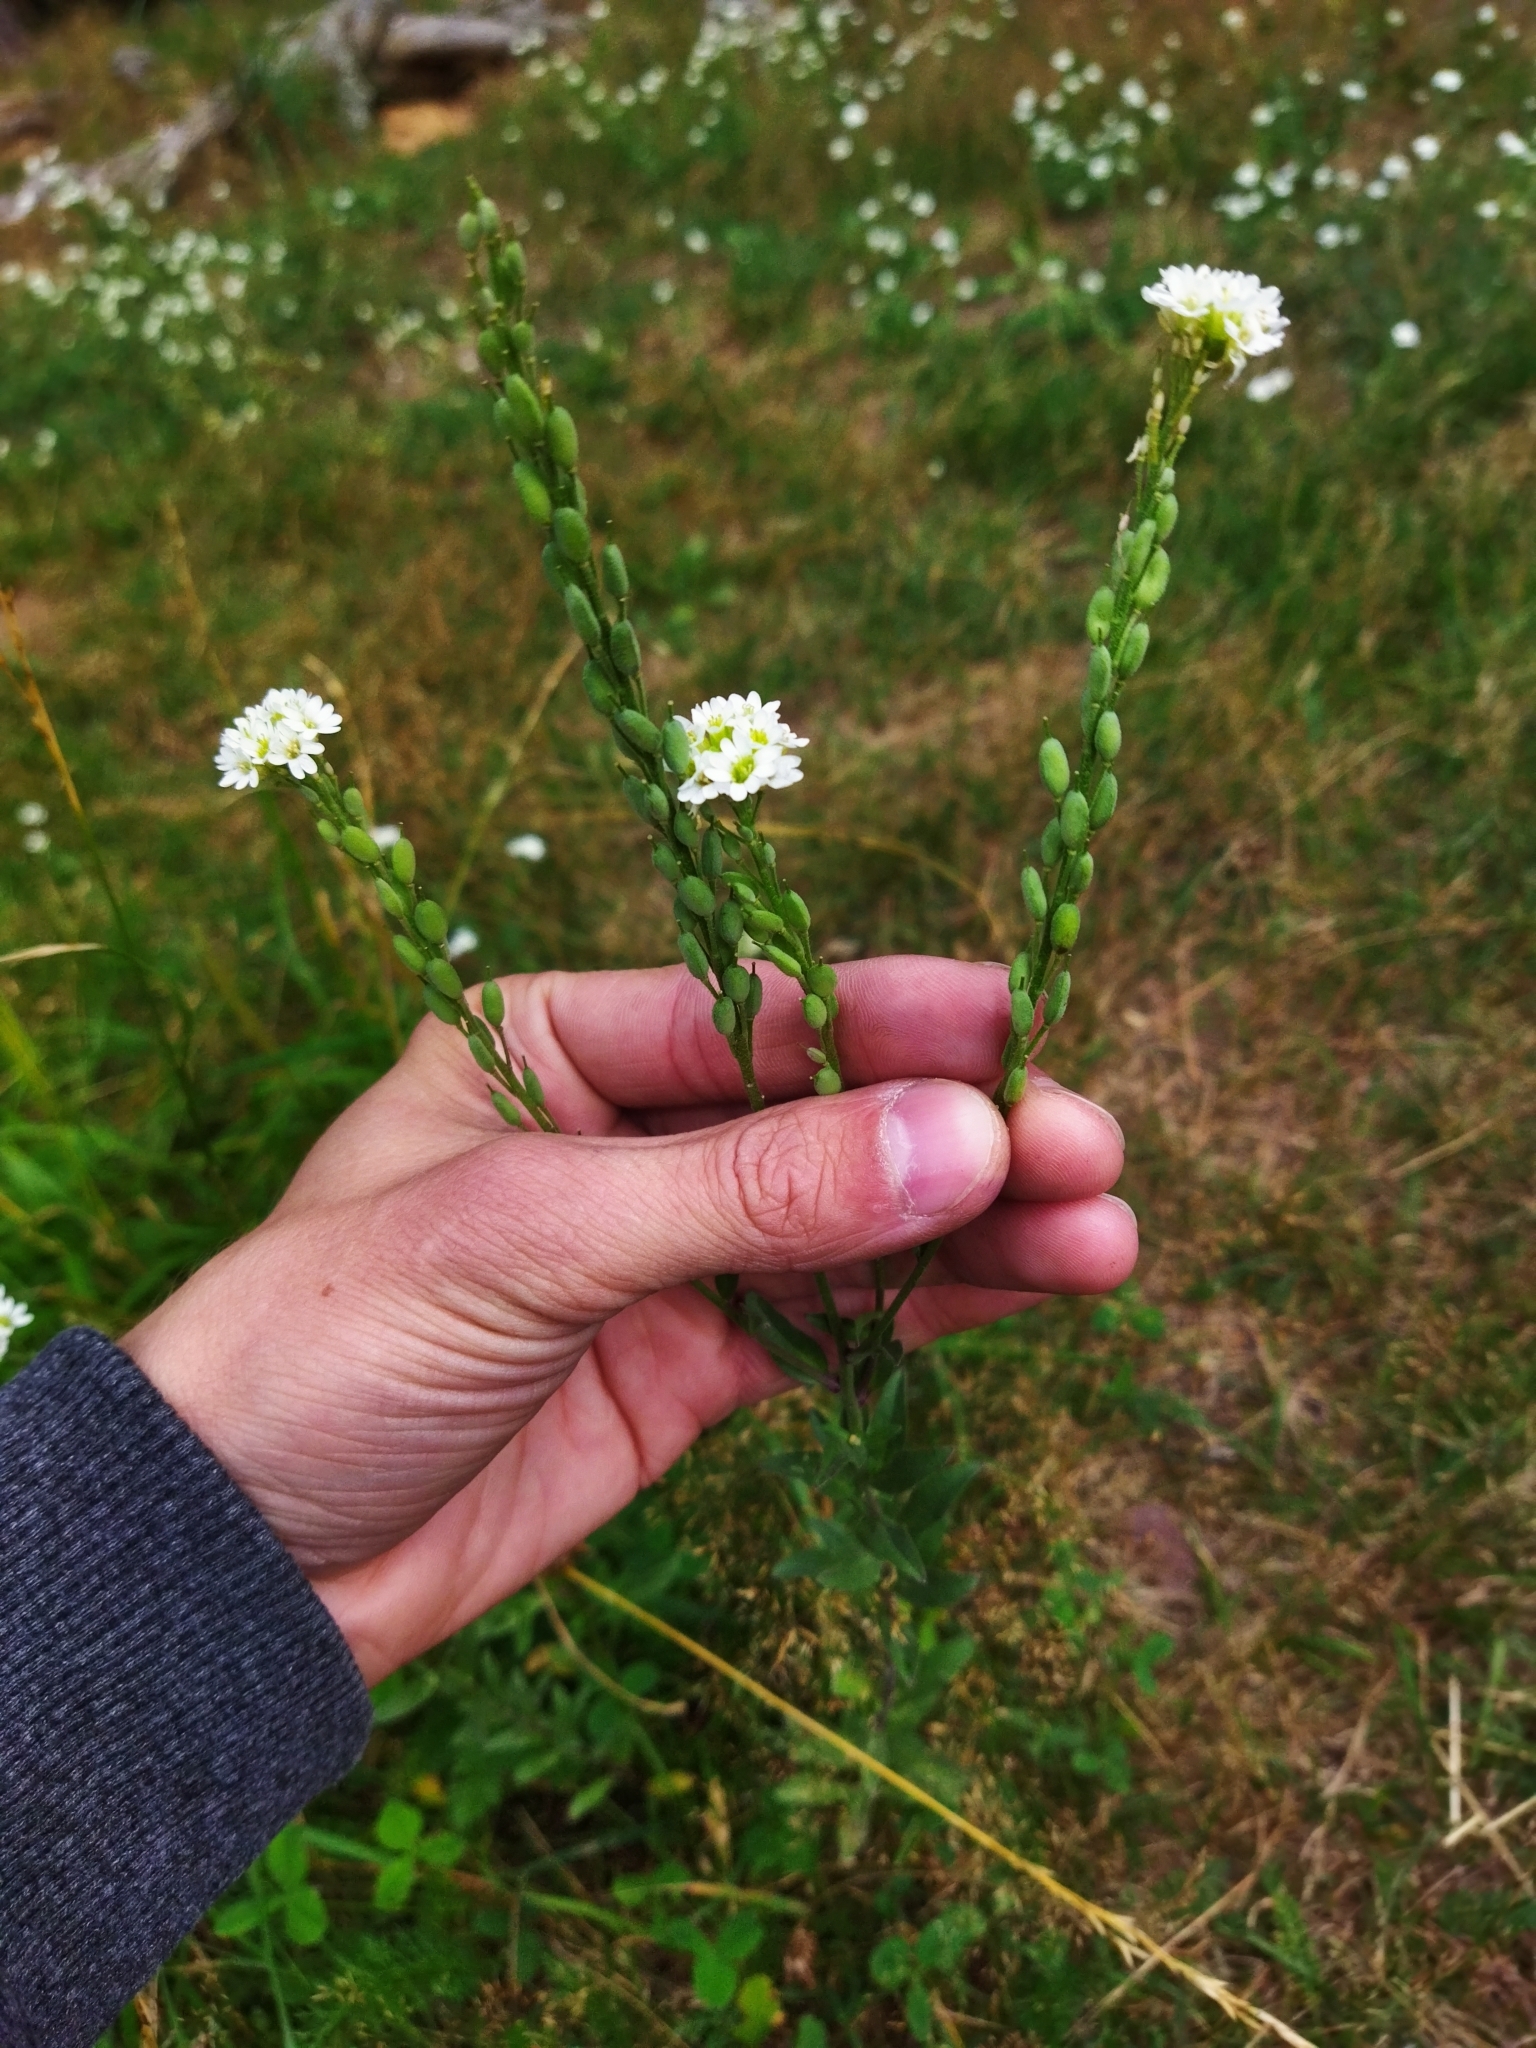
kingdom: Plantae
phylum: Tracheophyta
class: Magnoliopsida
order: Brassicales
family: Brassicaceae
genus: Berteroa
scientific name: Berteroa incana
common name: Hoary alison
